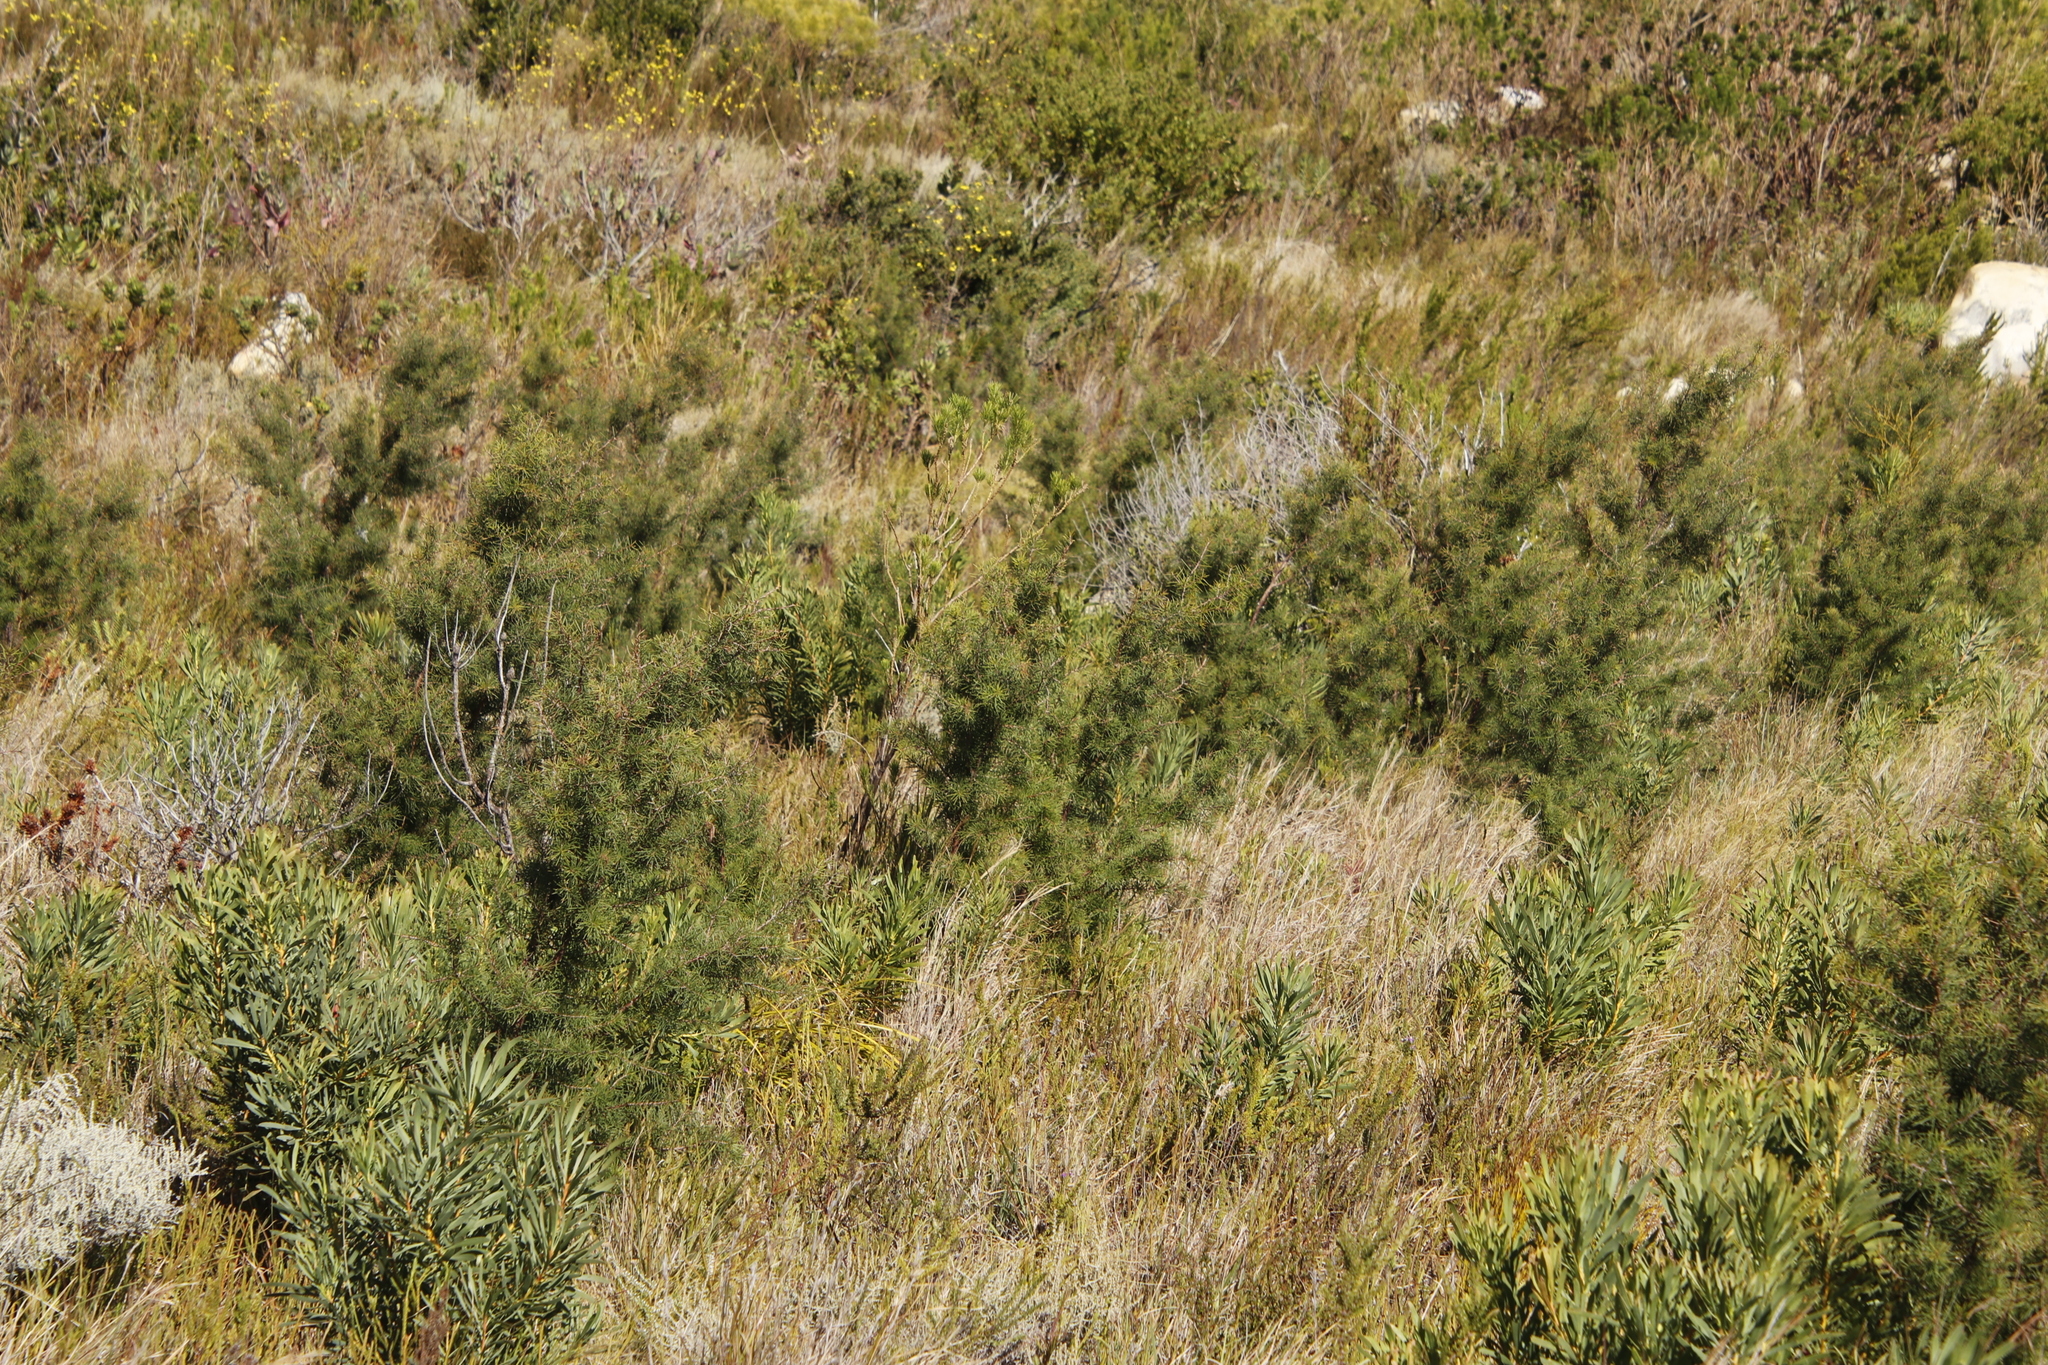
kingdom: Plantae
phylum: Tracheophyta
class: Magnoliopsida
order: Proteales
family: Proteaceae
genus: Hakea
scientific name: Hakea sericea
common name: Needle bush
